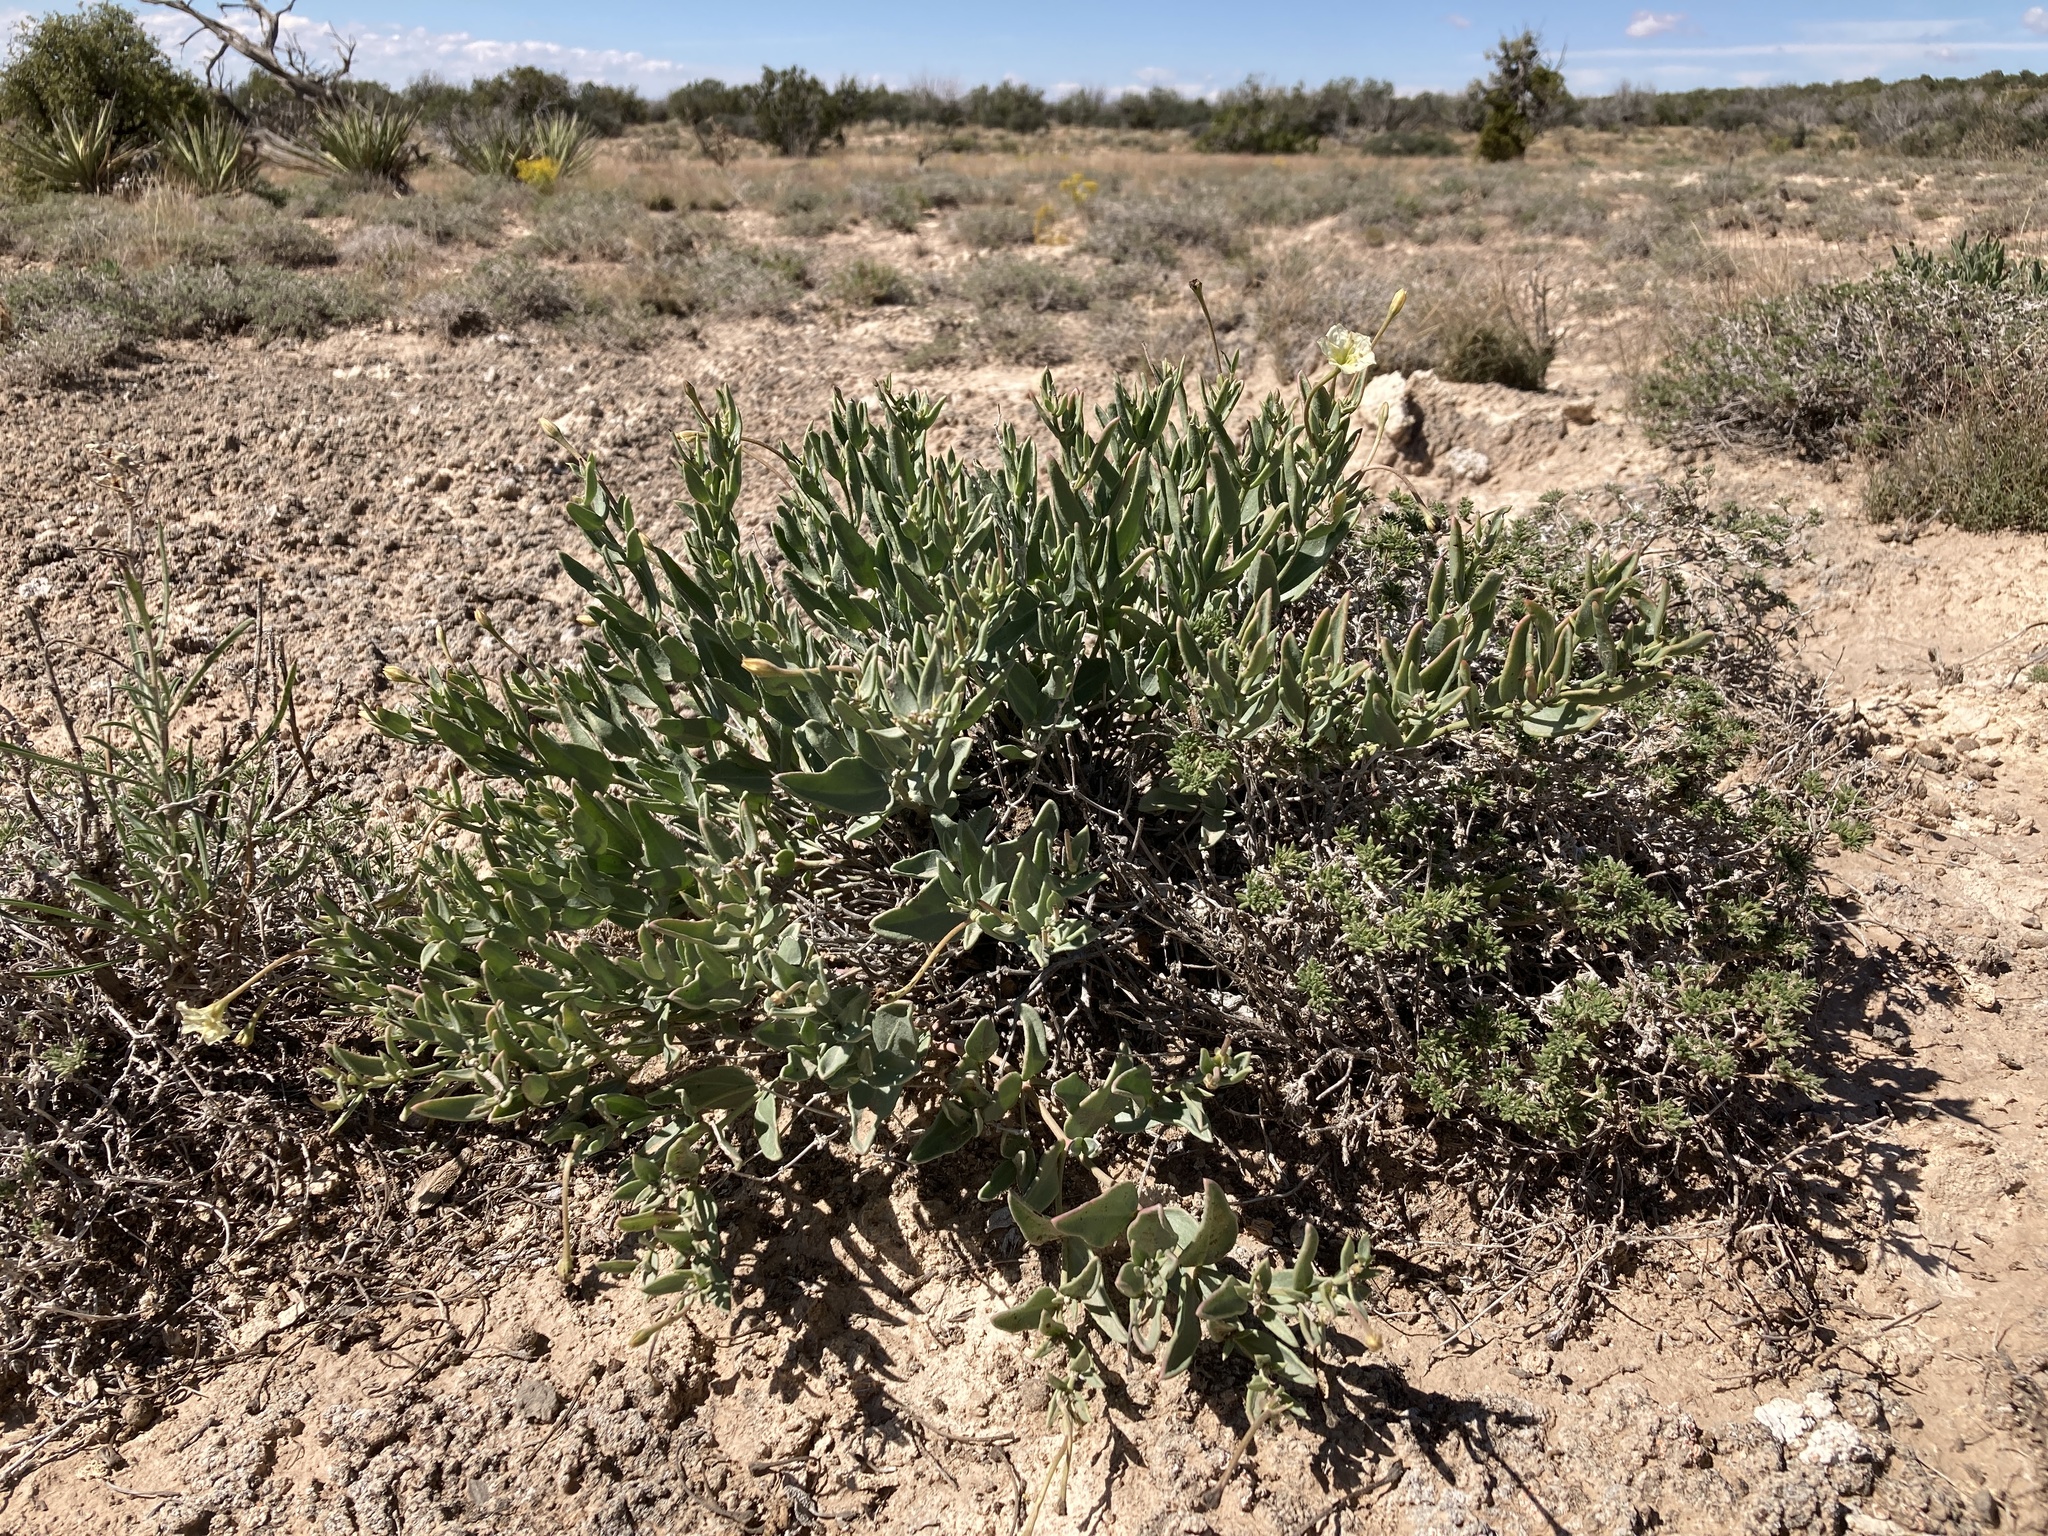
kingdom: Plantae
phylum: Tracheophyta
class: Magnoliopsida
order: Caryophyllales
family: Nyctaginaceae
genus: Acleisanthes
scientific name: Acleisanthes lanceolata
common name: Gypsum moonpod
